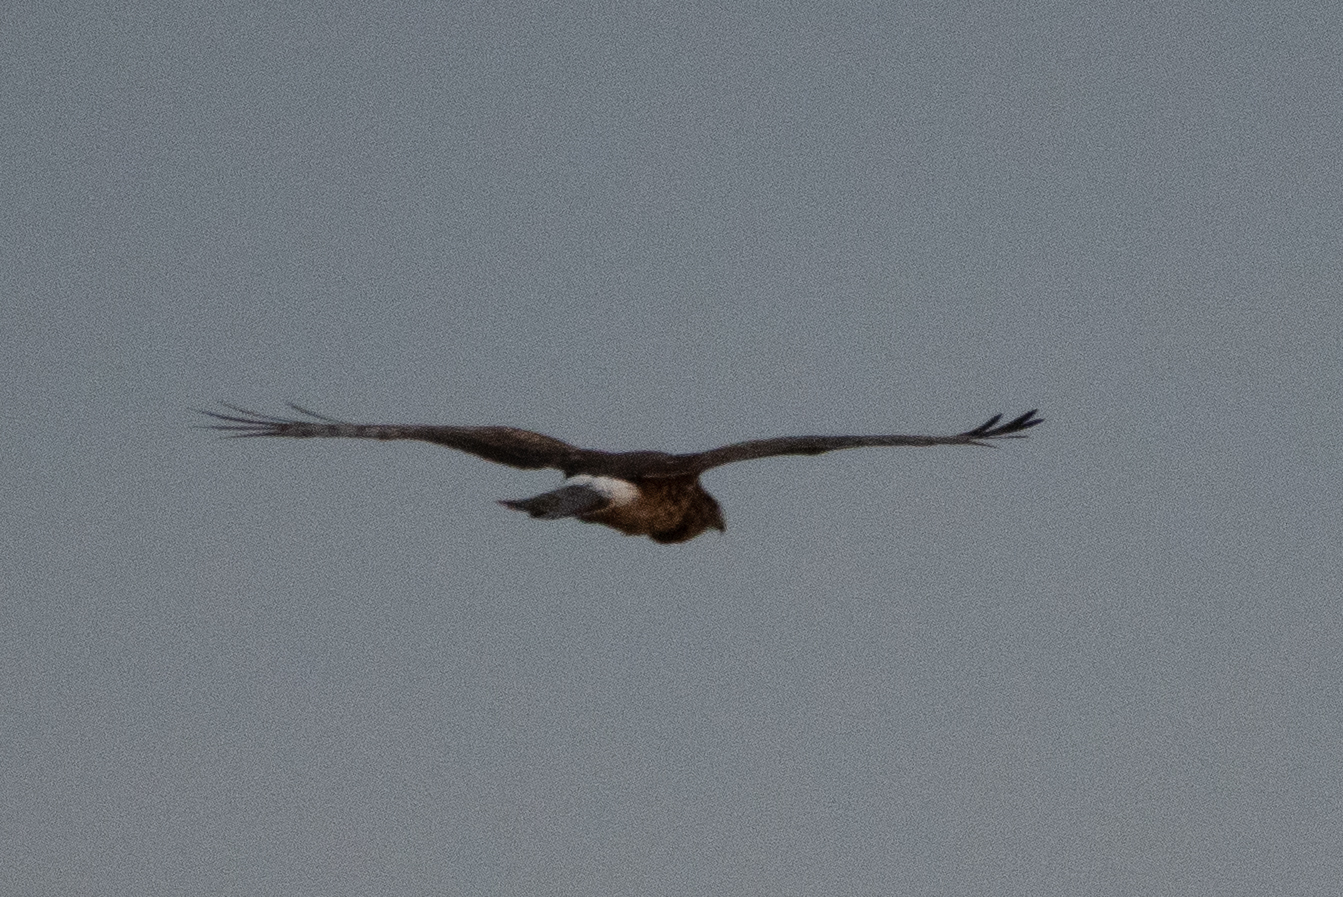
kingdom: Animalia
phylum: Chordata
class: Aves
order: Accipitriformes
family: Accipitridae
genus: Circus
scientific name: Circus cyaneus
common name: Hen harrier
